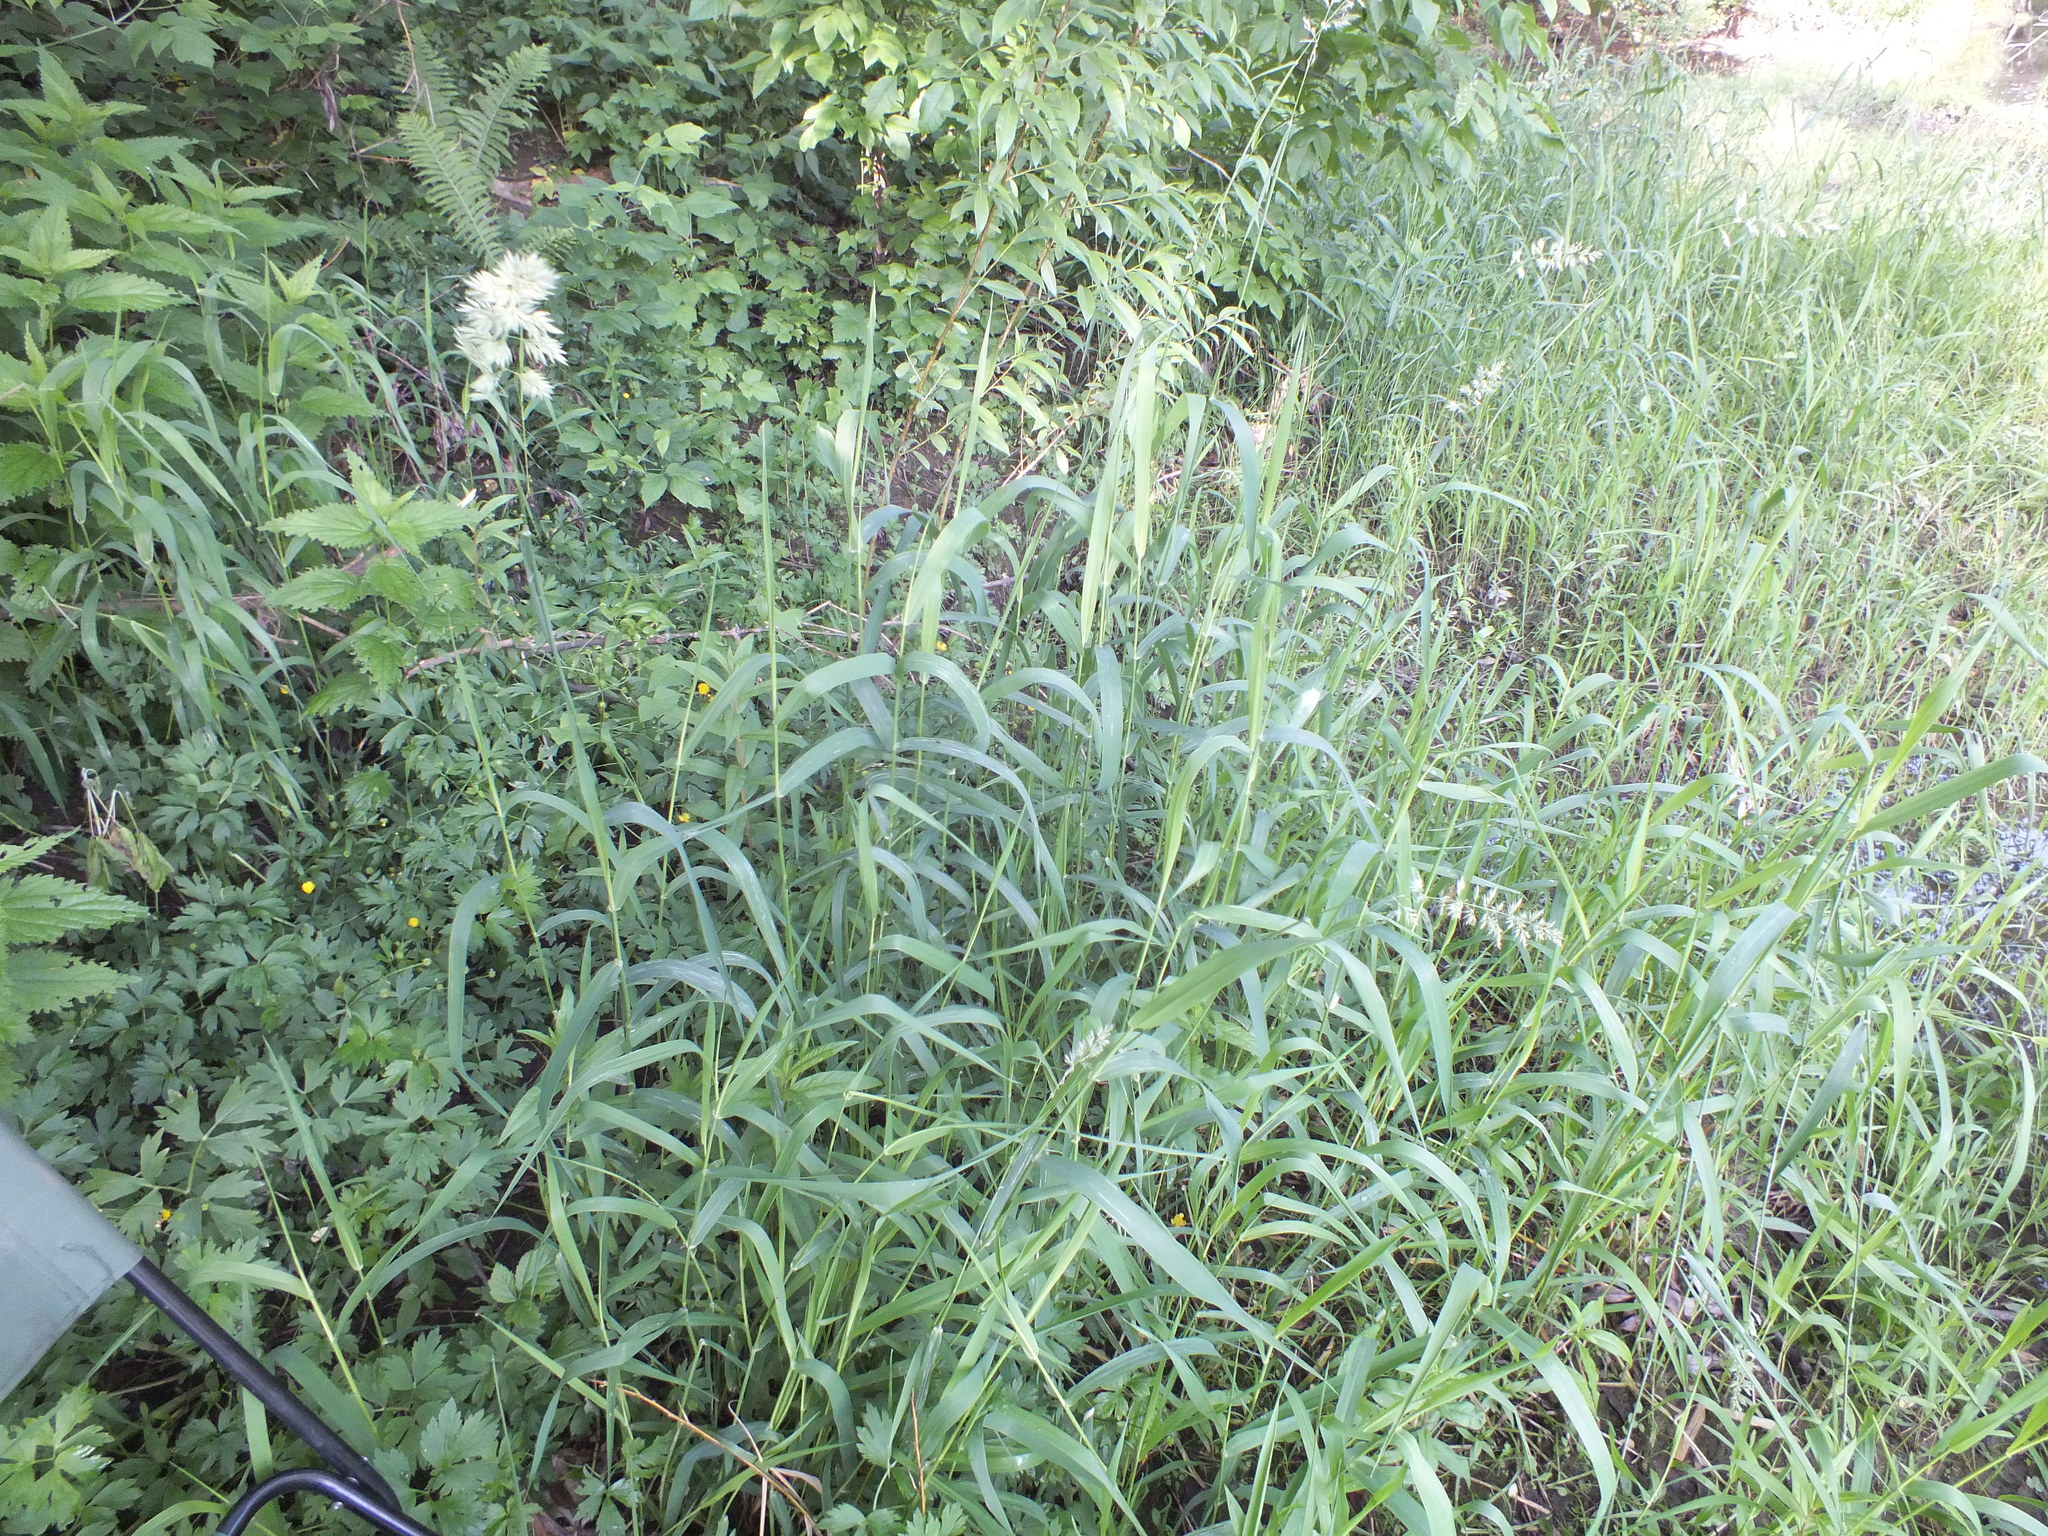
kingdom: Plantae
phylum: Tracheophyta
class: Liliopsida
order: Poales
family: Poaceae
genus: Phalaris
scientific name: Phalaris arundinacea
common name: Reed canary-grass
